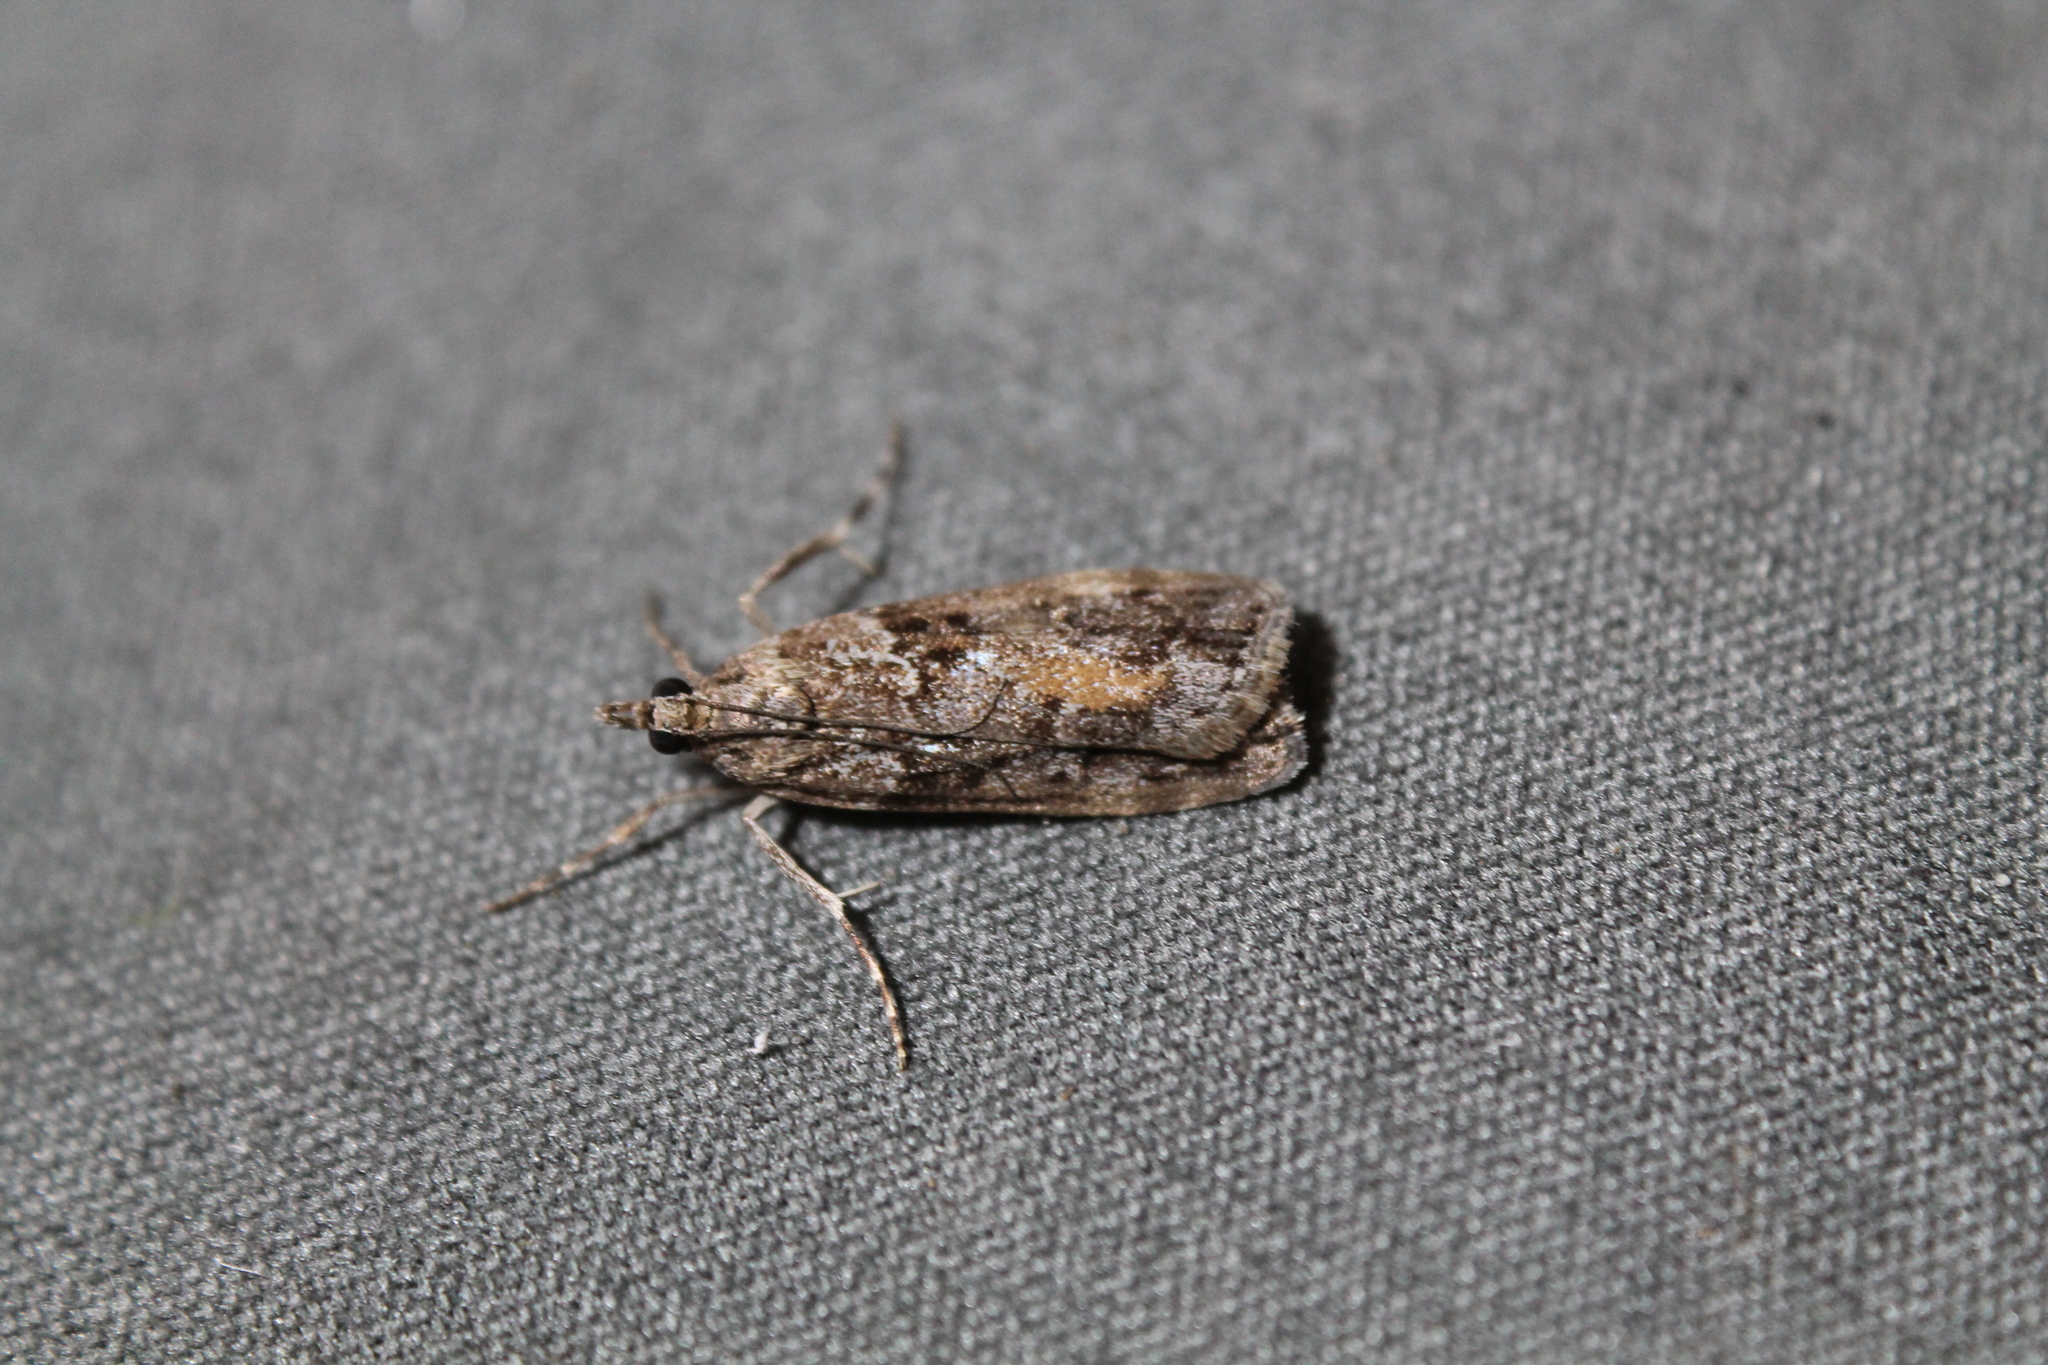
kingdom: Animalia
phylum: Arthropoda
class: Insecta
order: Lepidoptera
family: Crambidae
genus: Eudonia
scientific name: Eudonia submarginalis
